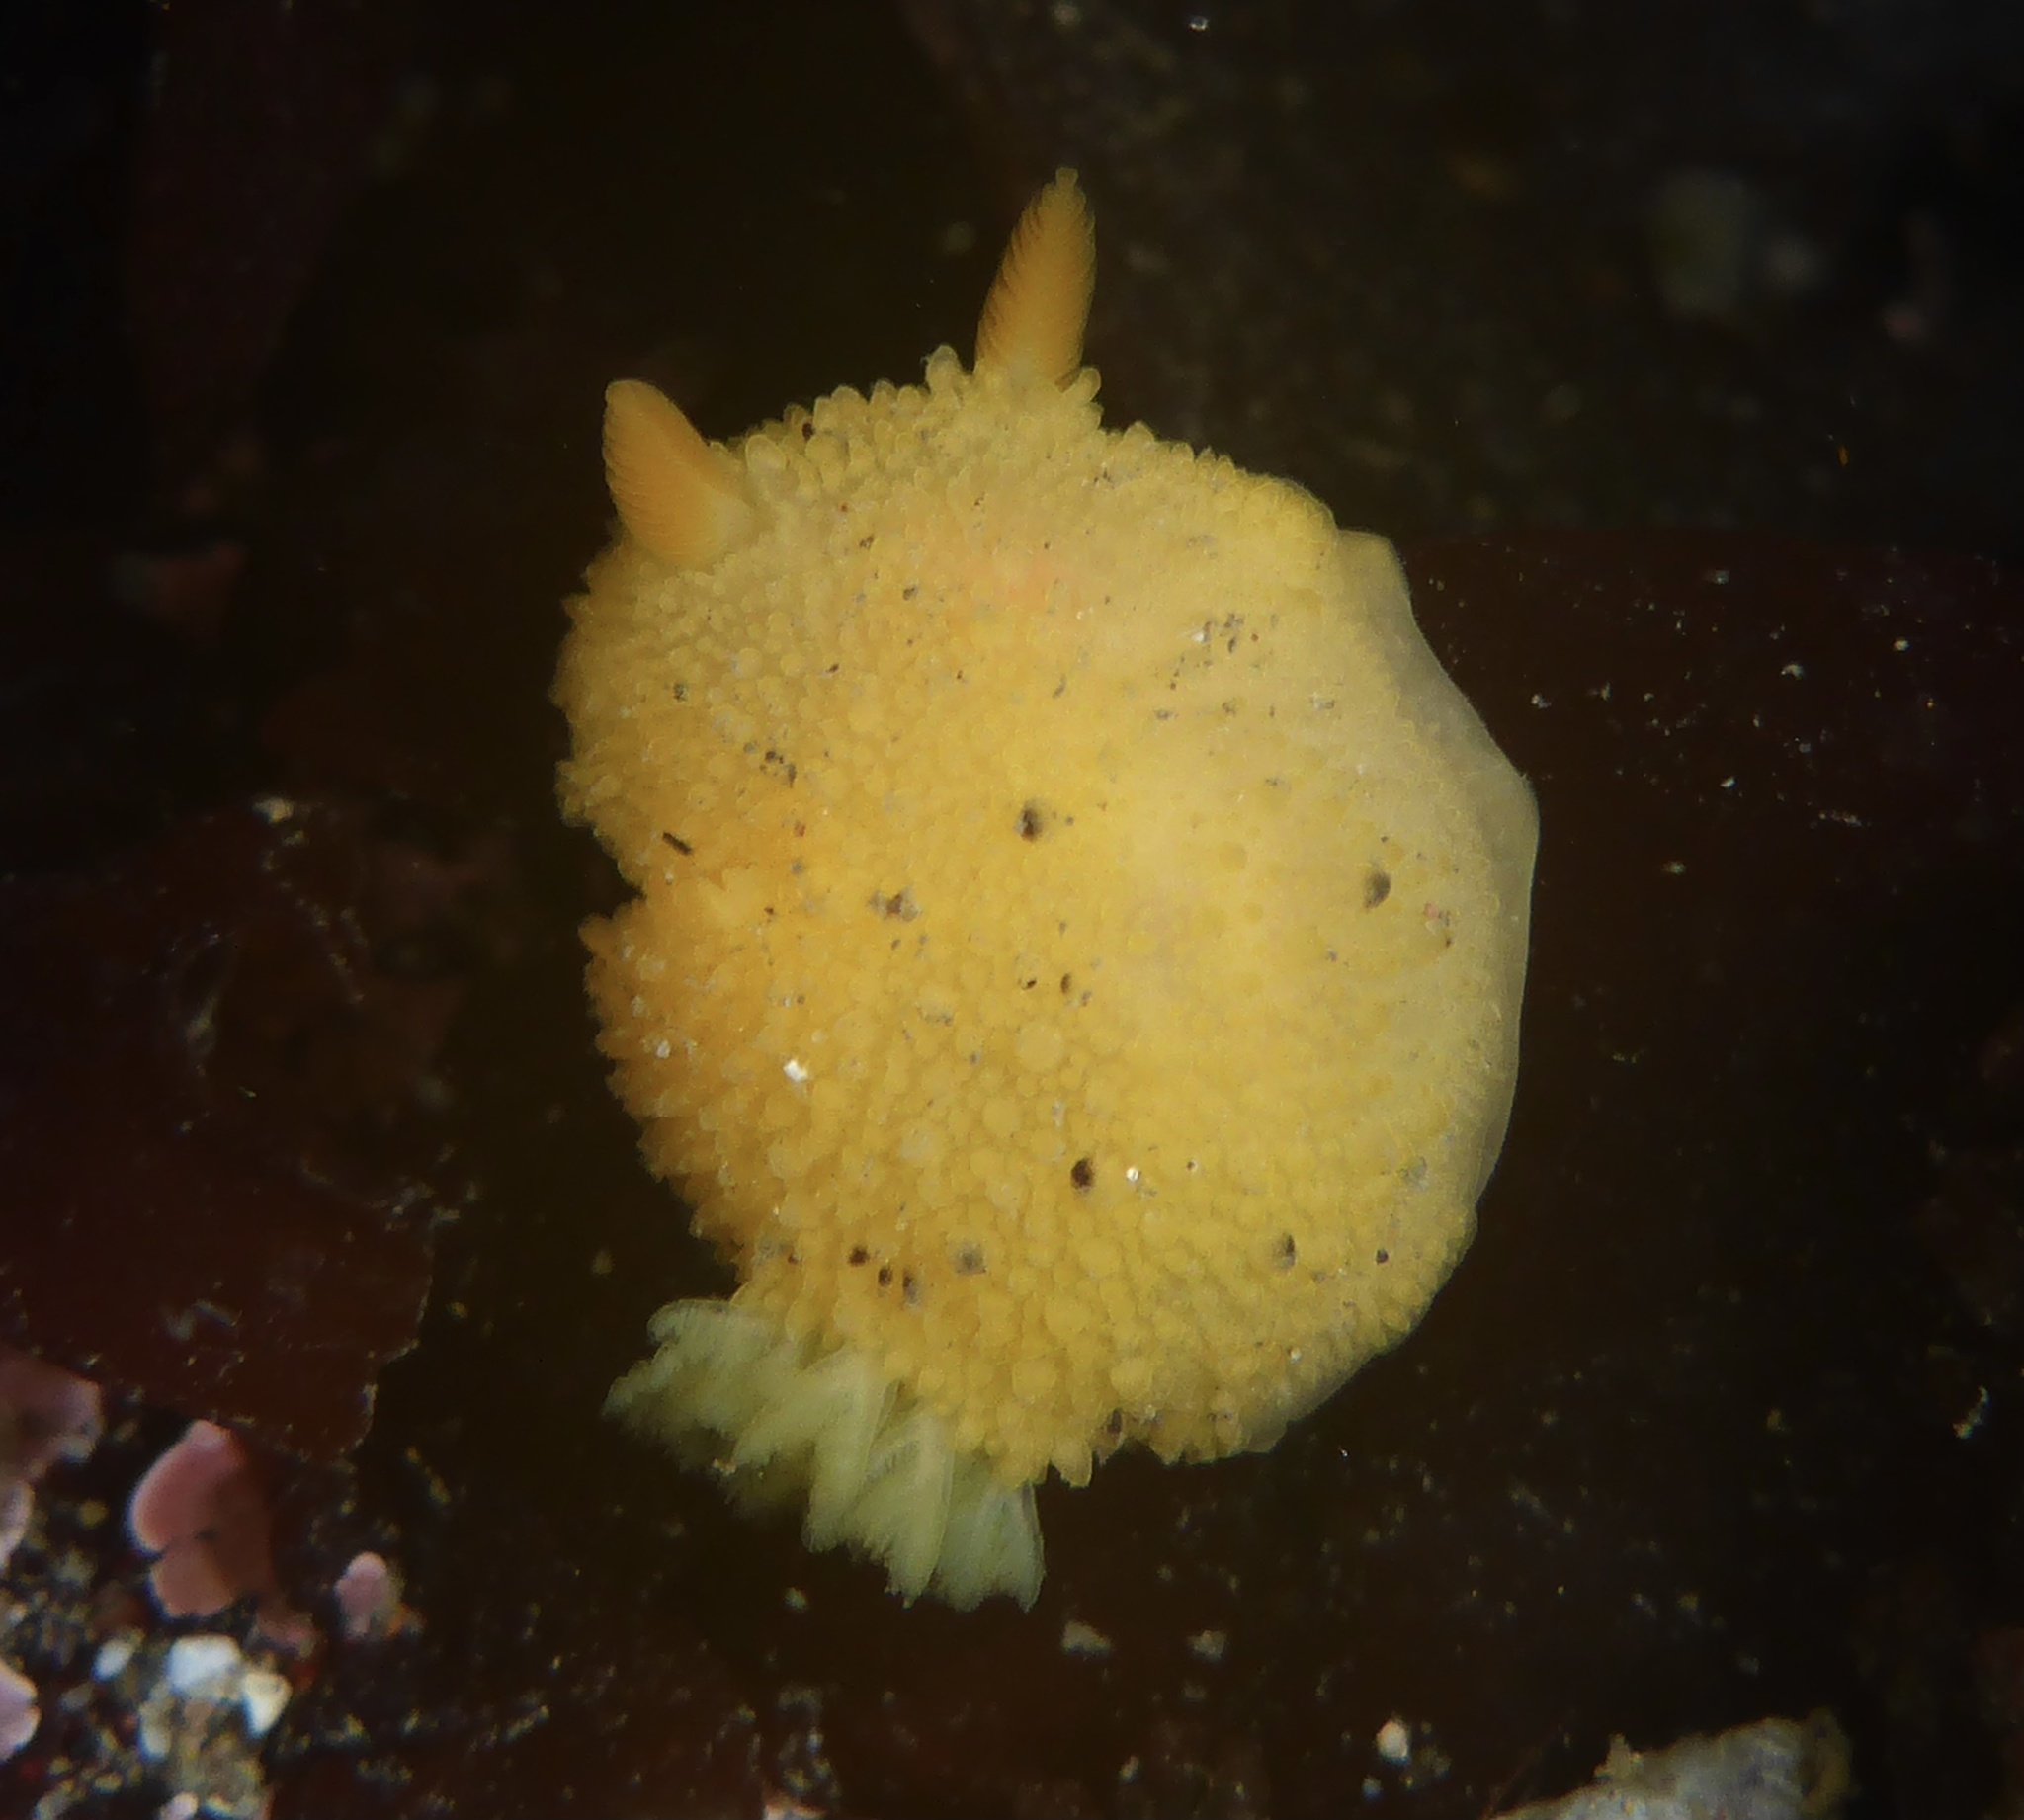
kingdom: Animalia
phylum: Mollusca
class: Gastropoda
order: Nudibranchia
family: Dorididae
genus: Doris
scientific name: Doris montereyensis
